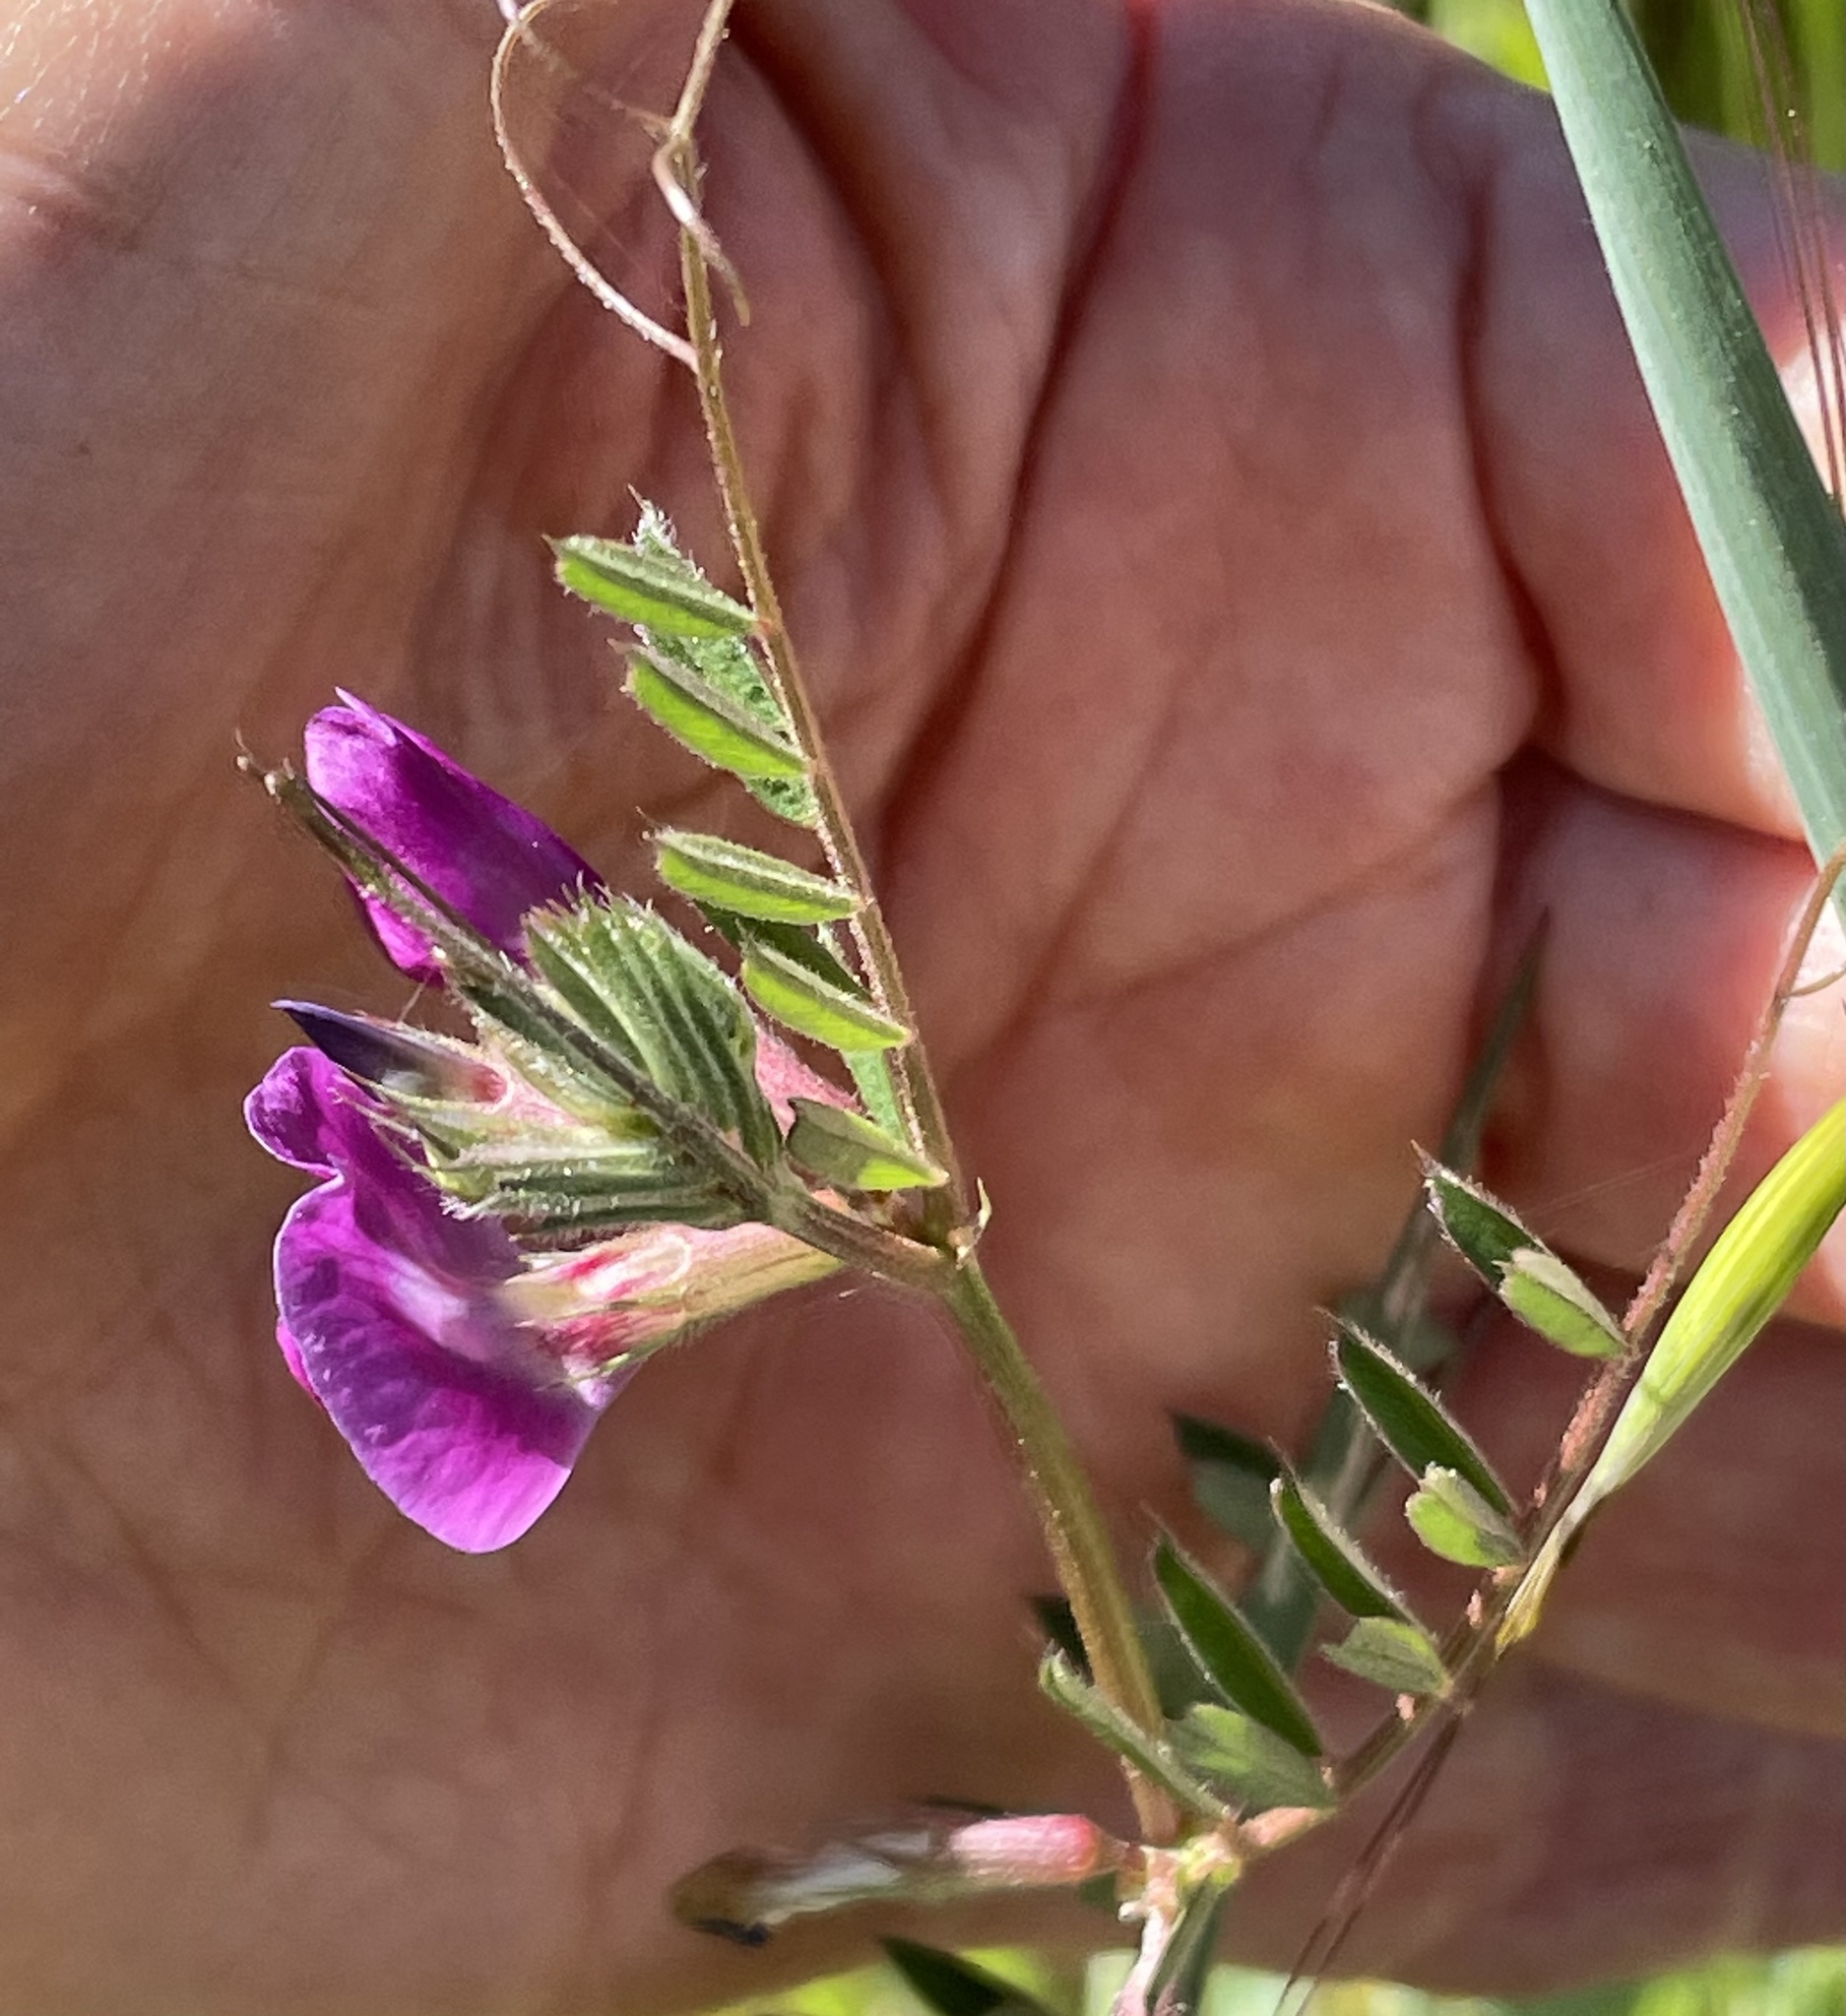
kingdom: Plantae
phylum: Tracheophyta
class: Magnoliopsida
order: Fabales
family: Fabaceae
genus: Vicia
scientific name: Vicia sativa
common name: Garden vetch
